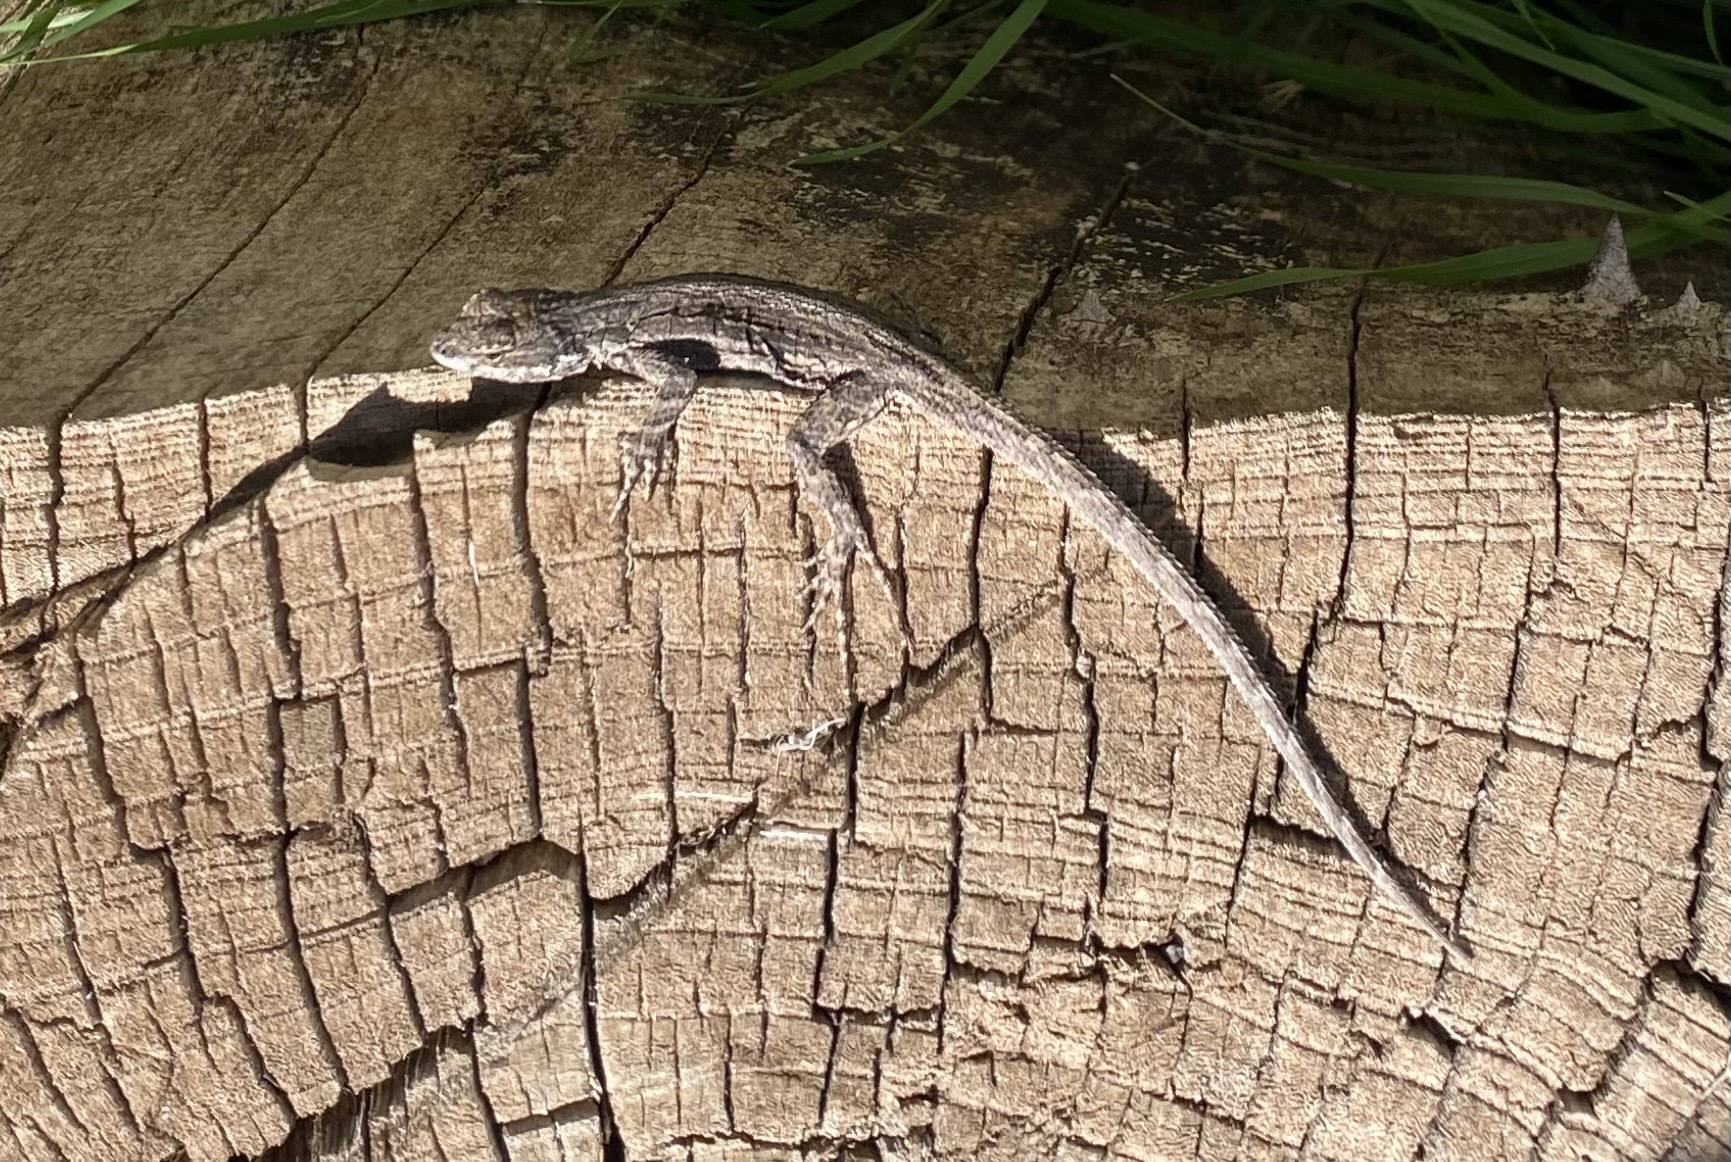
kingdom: Animalia
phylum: Chordata
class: Squamata
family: Phrynosomatidae
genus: Urosaurus
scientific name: Urosaurus ornatus
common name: Ornate tree lizard
